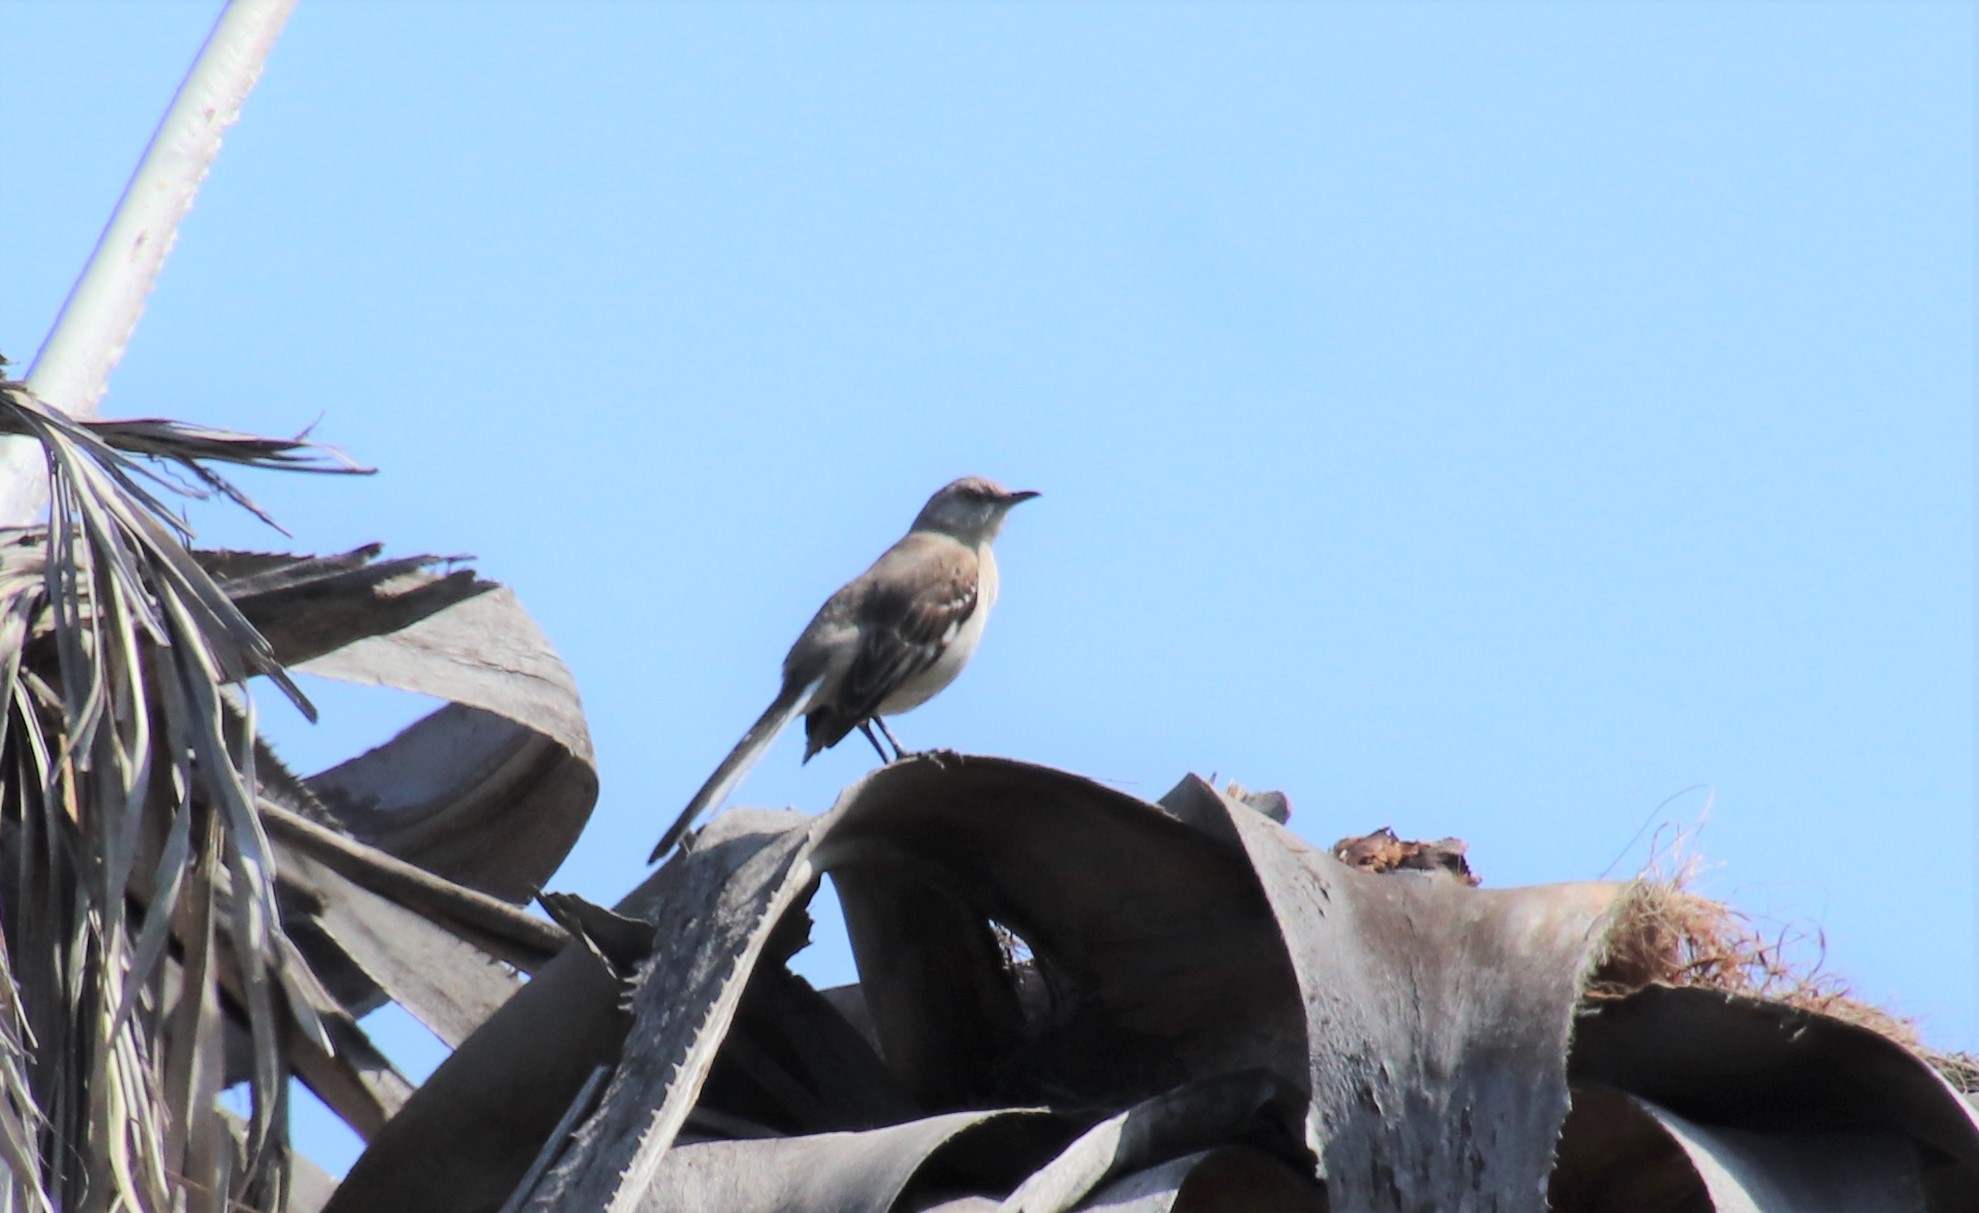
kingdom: Animalia
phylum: Chordata
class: Aves
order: Passeriformes
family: Mimidae
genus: Mimus
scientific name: Mimus polyglottos
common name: Northern mockingbird
